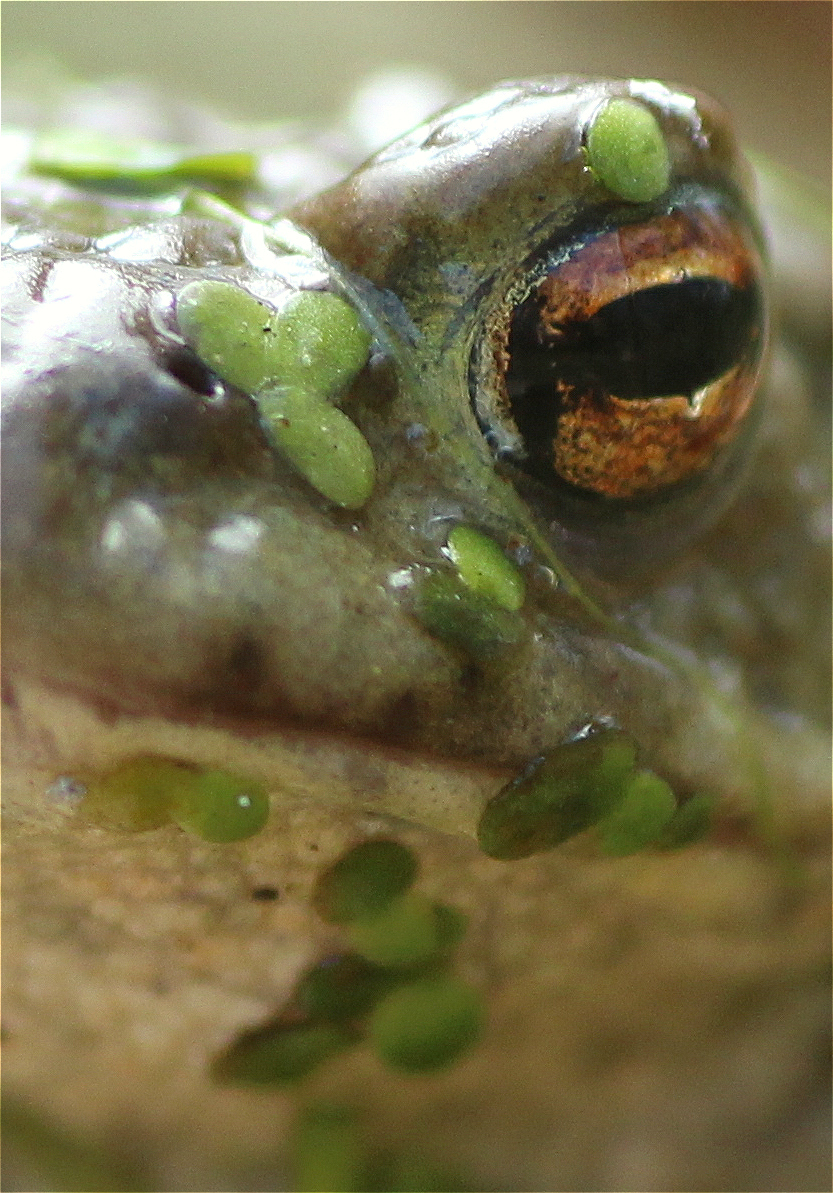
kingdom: Plantae
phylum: Tracheophyta
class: Liliopsida
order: Alismatales
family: Araceae
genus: Lemna
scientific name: Lemna minor
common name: Common duckweed
